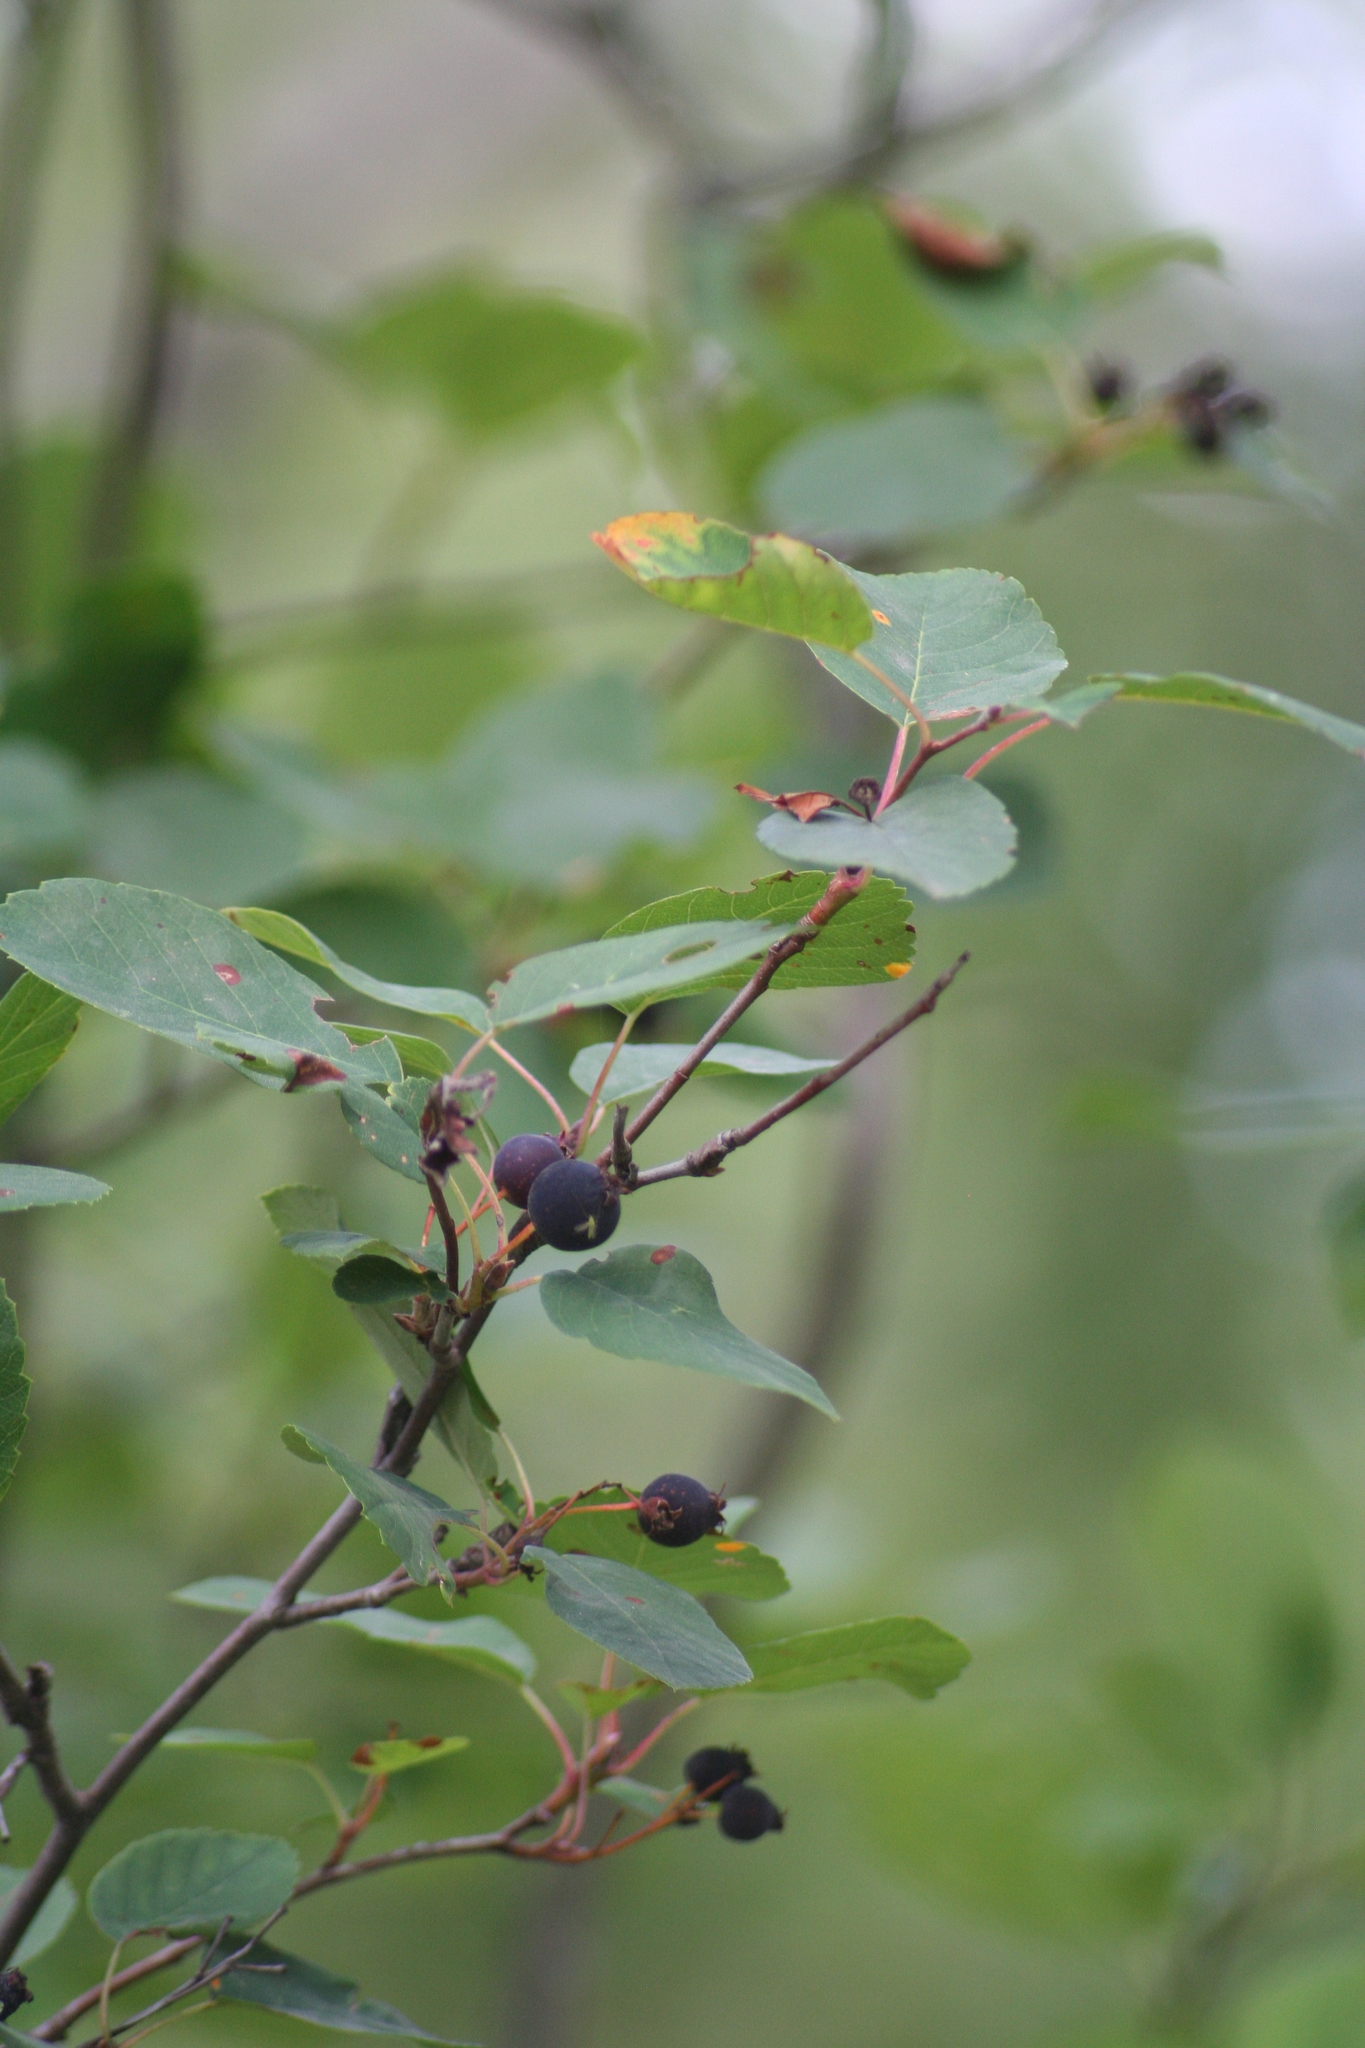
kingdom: Plantae
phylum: Tracheophyta
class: Magnoliopsida
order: Rosales
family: Rosaceae
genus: Amelanchier
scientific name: Amelanchier alnifolia
